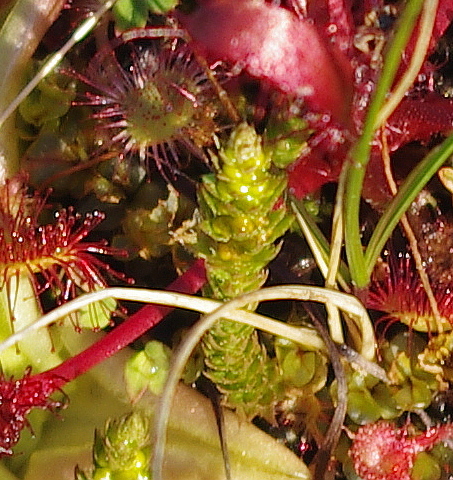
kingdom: Plantae
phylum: Tracheophyta
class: Lycopodiopsida
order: Selaginellales
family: Selaginellaceae
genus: Selaginella
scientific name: Selaginella selaginoides
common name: Prickly mountain-moss
